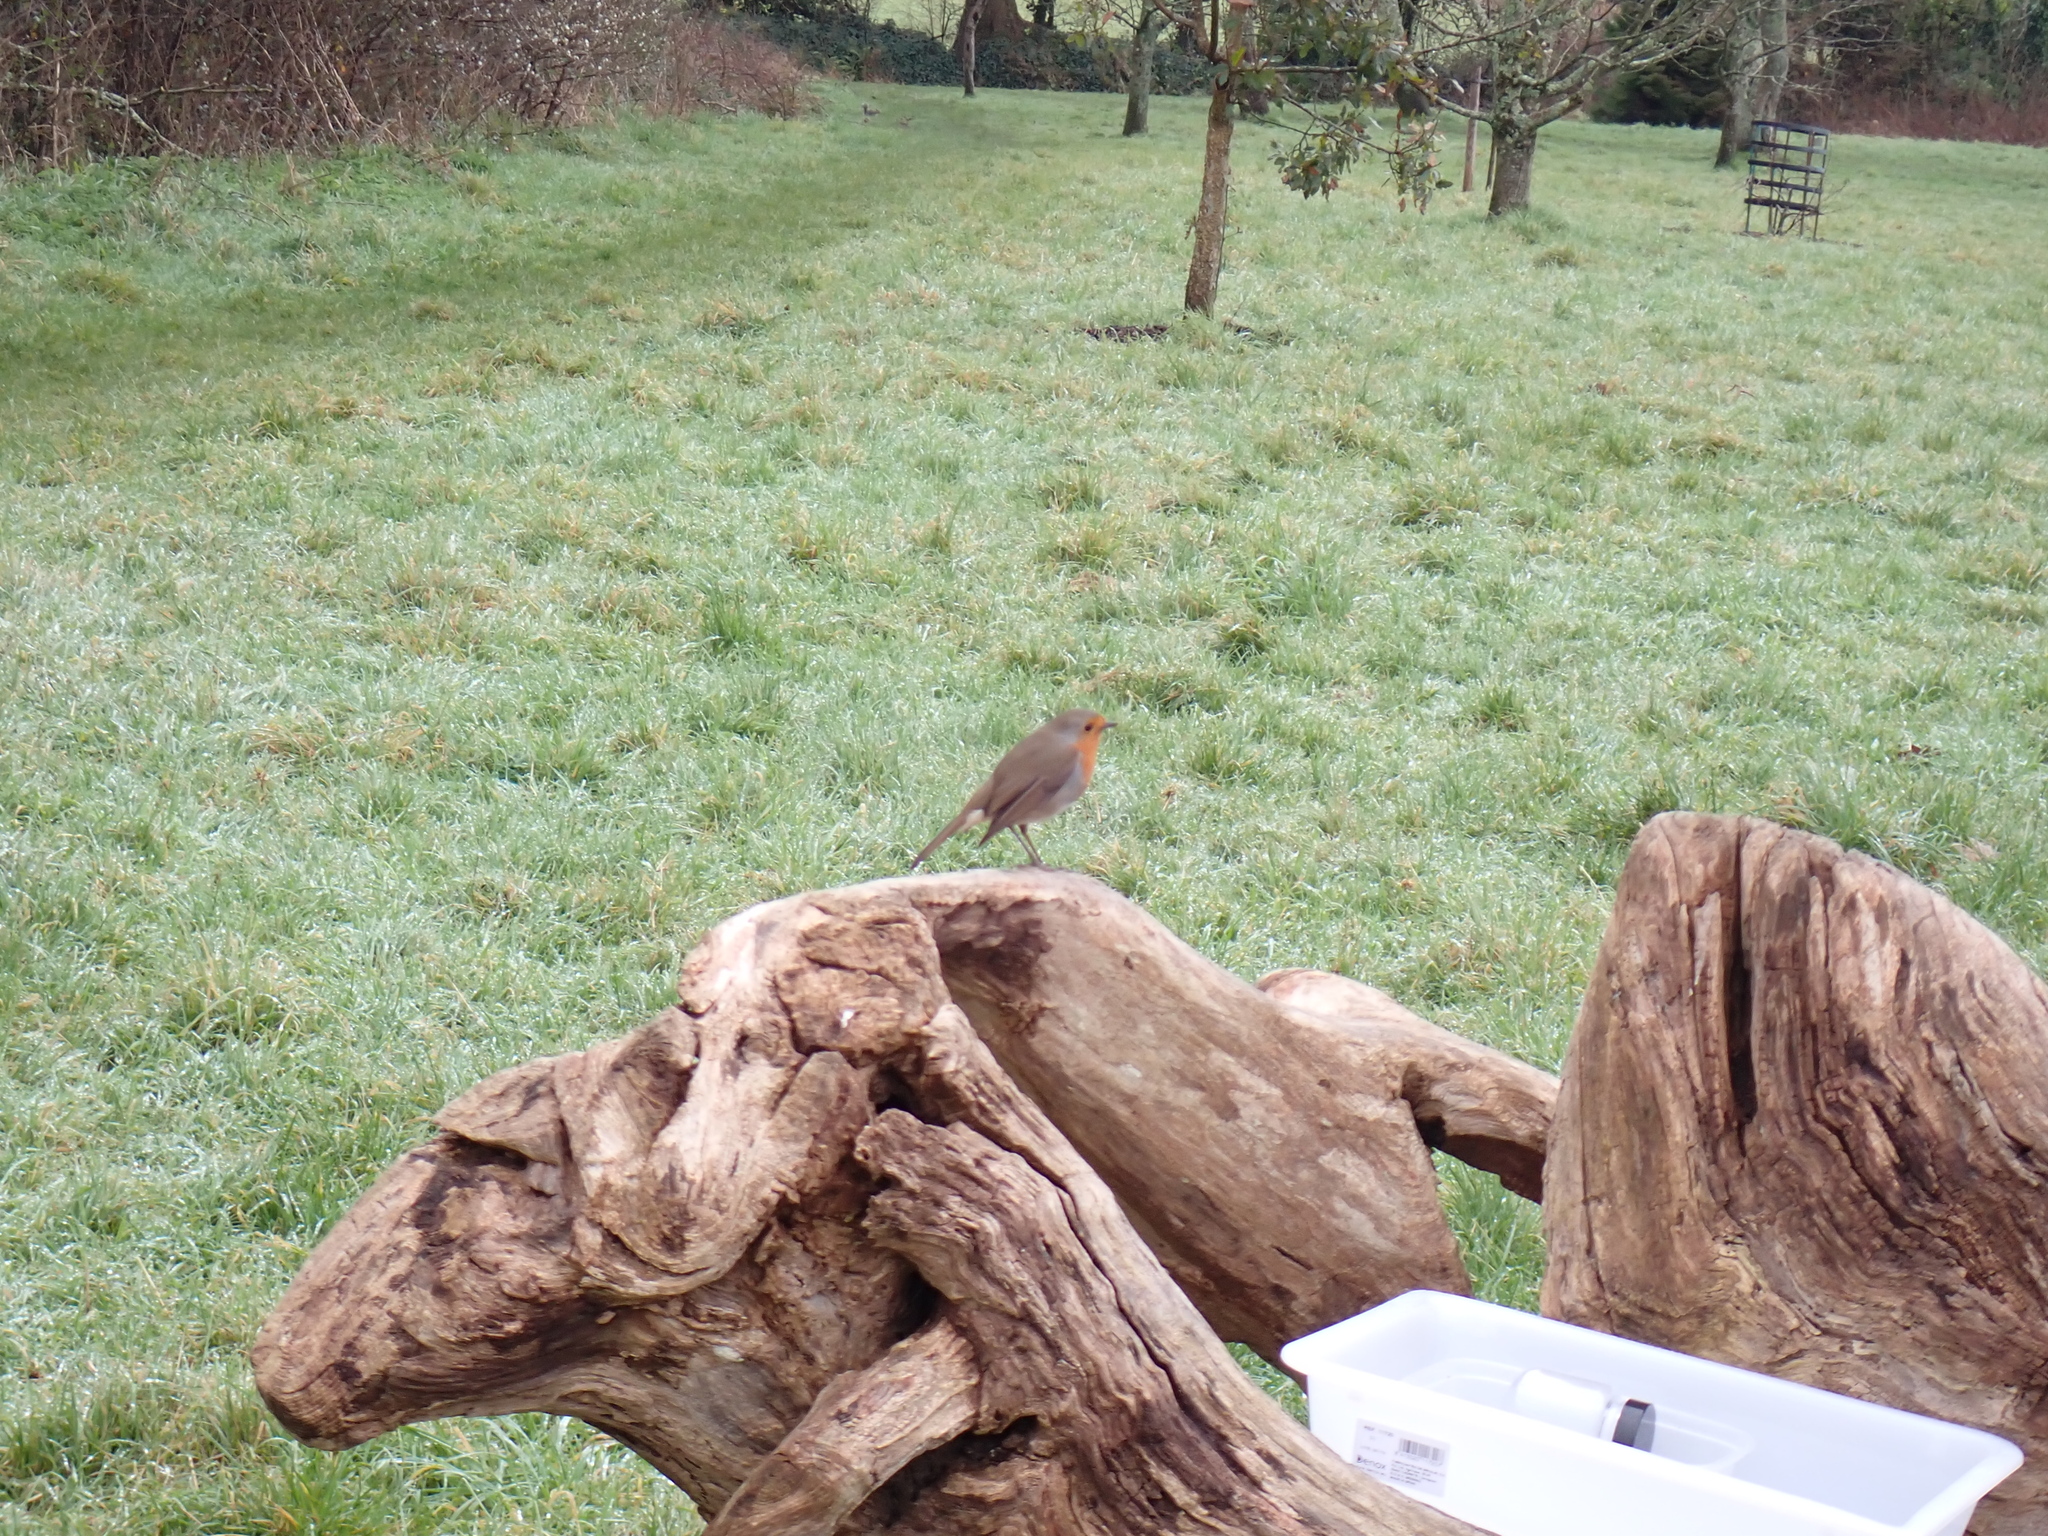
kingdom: Animalia
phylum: Chordata
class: Aves
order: Passeriformes
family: Muscicapidae
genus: Erithacus
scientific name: Erithacus rubecula
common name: European robin
